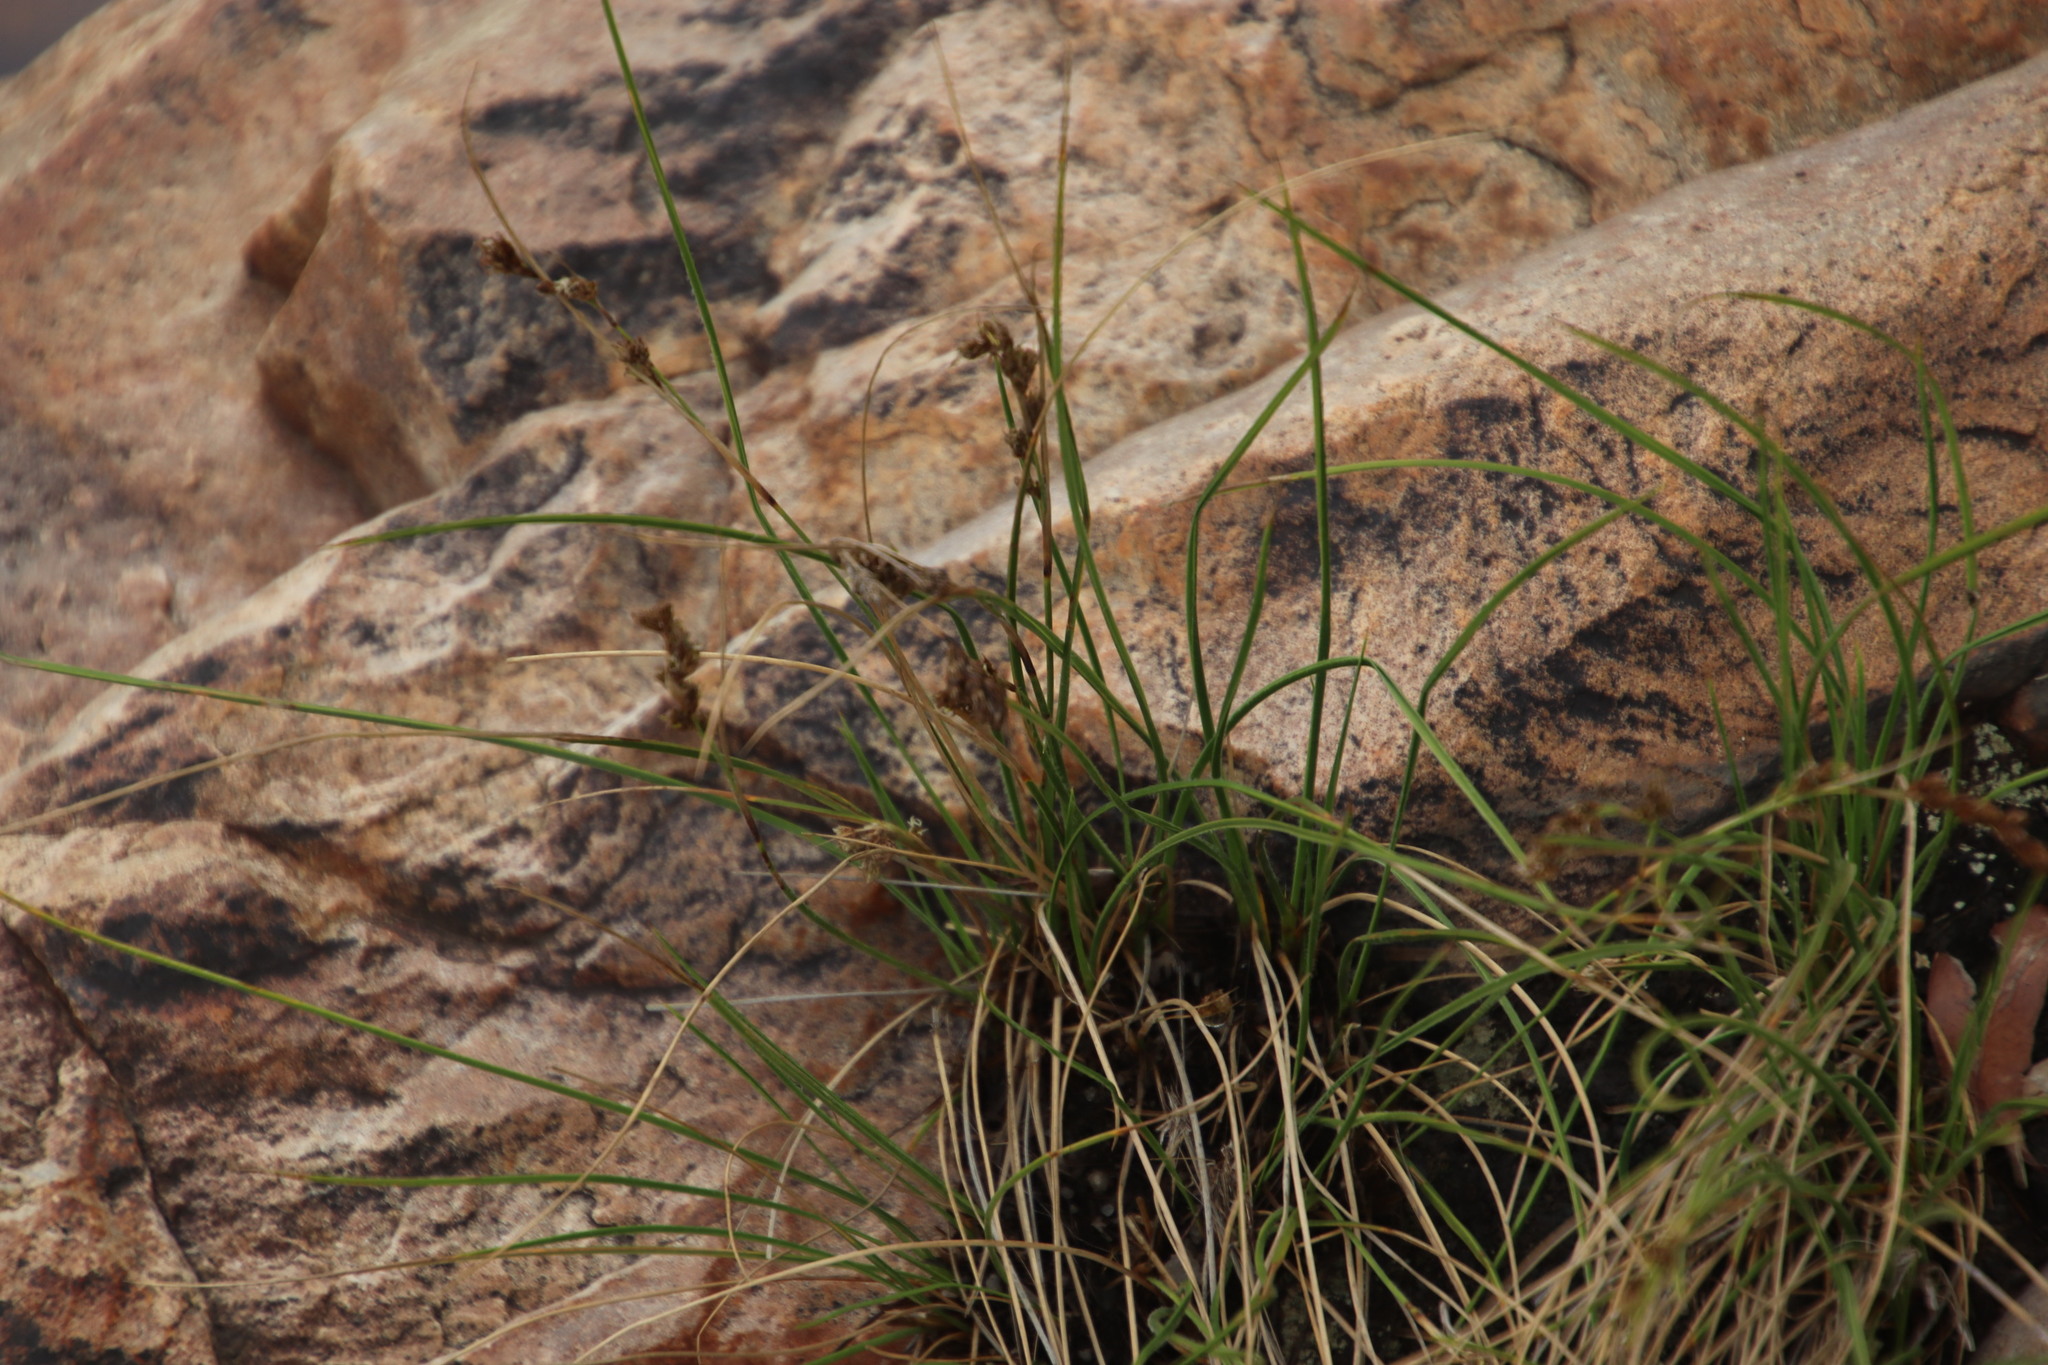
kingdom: Plantae
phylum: Tracheophyta
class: Liliopsida
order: Poales
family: Cyperaceae
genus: Coleochloa
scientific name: Coleochloa setifera
